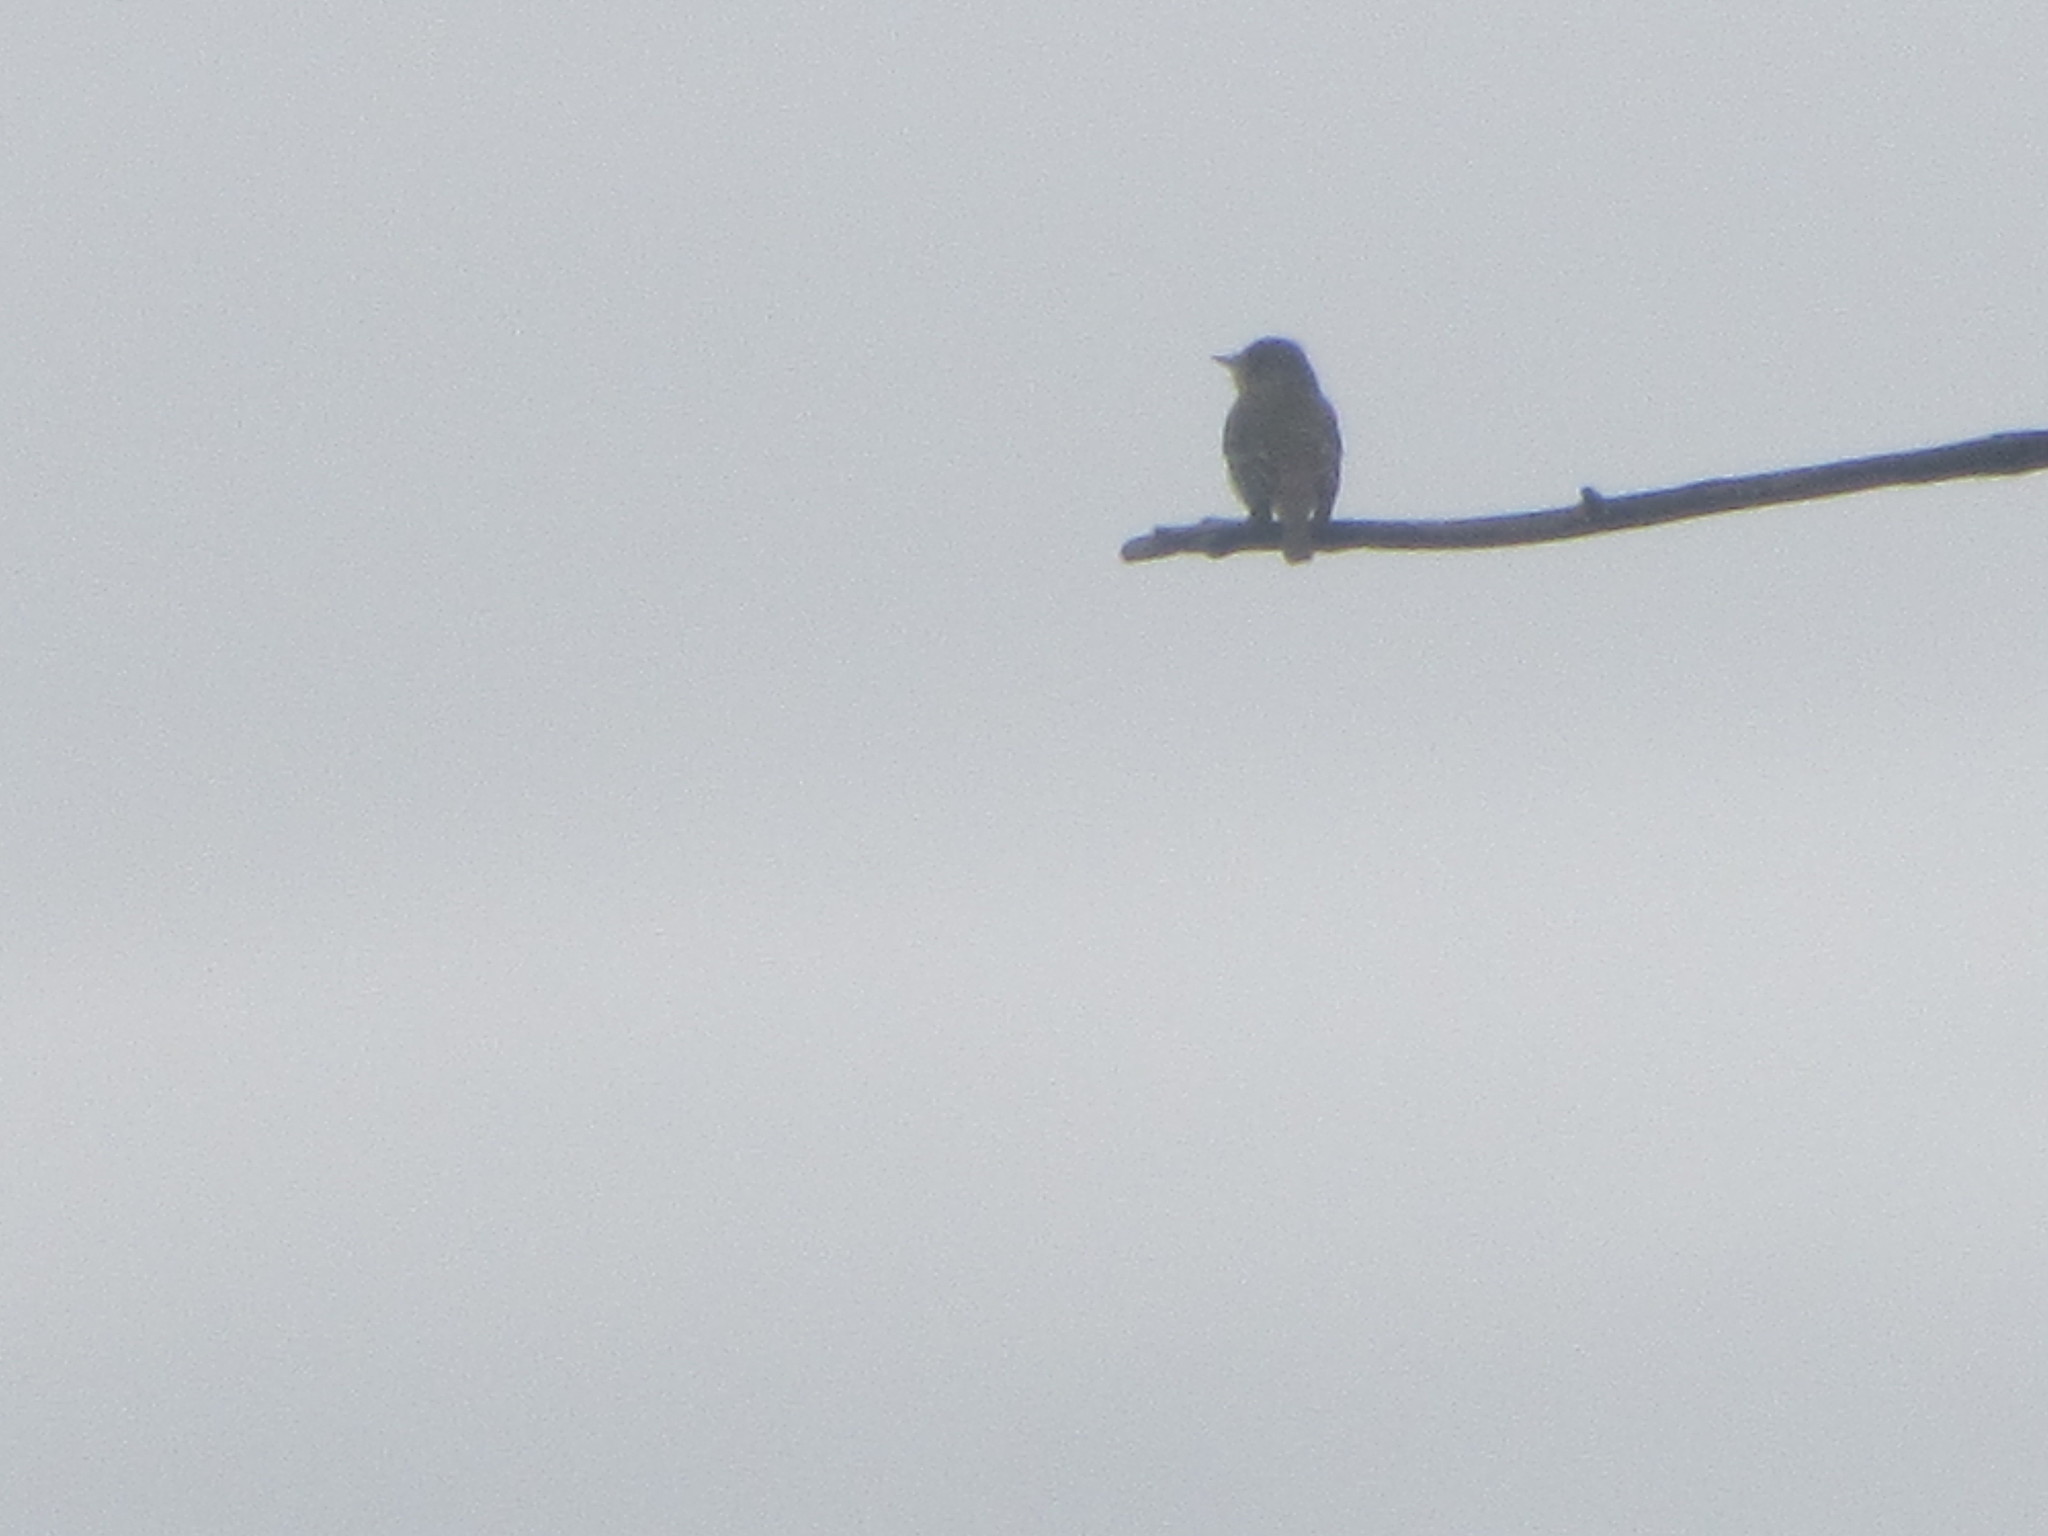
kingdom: Animalia
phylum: Chordata
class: Aves
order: Passeriformes
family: Tyrannidae
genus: Contopus
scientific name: Contopus sordidulus
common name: Western wood-pewee
